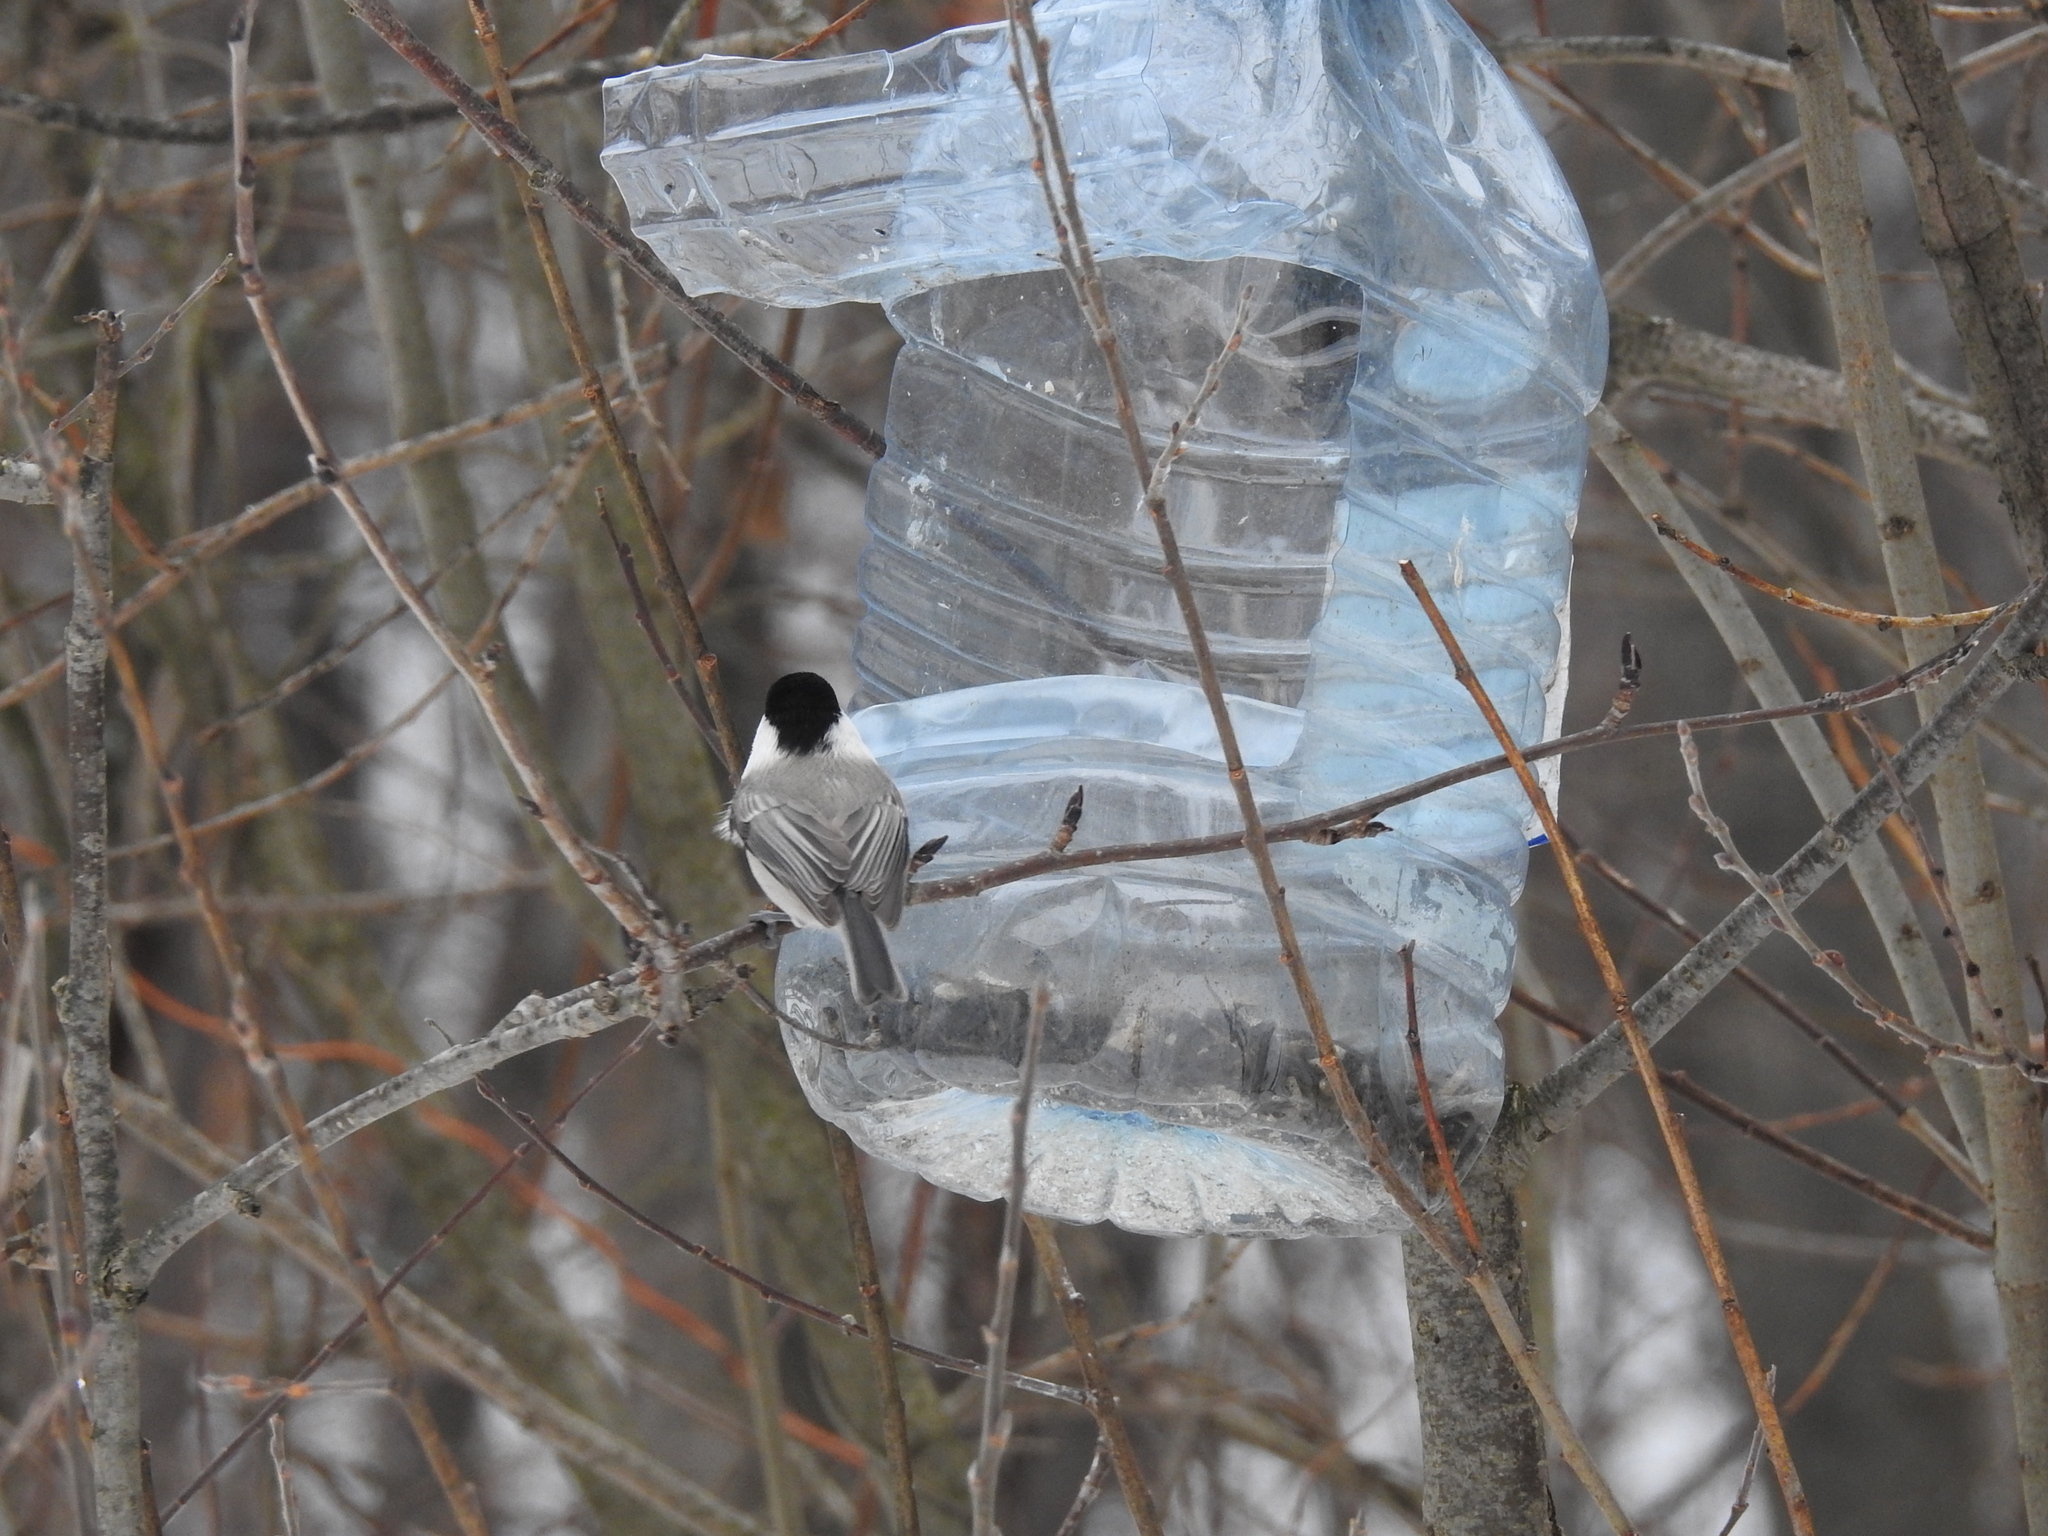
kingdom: Animalia
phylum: Chordata
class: Aves
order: Passeriformes
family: Paridae
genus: Poecile
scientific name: Poecile montanus
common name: Willow tit
